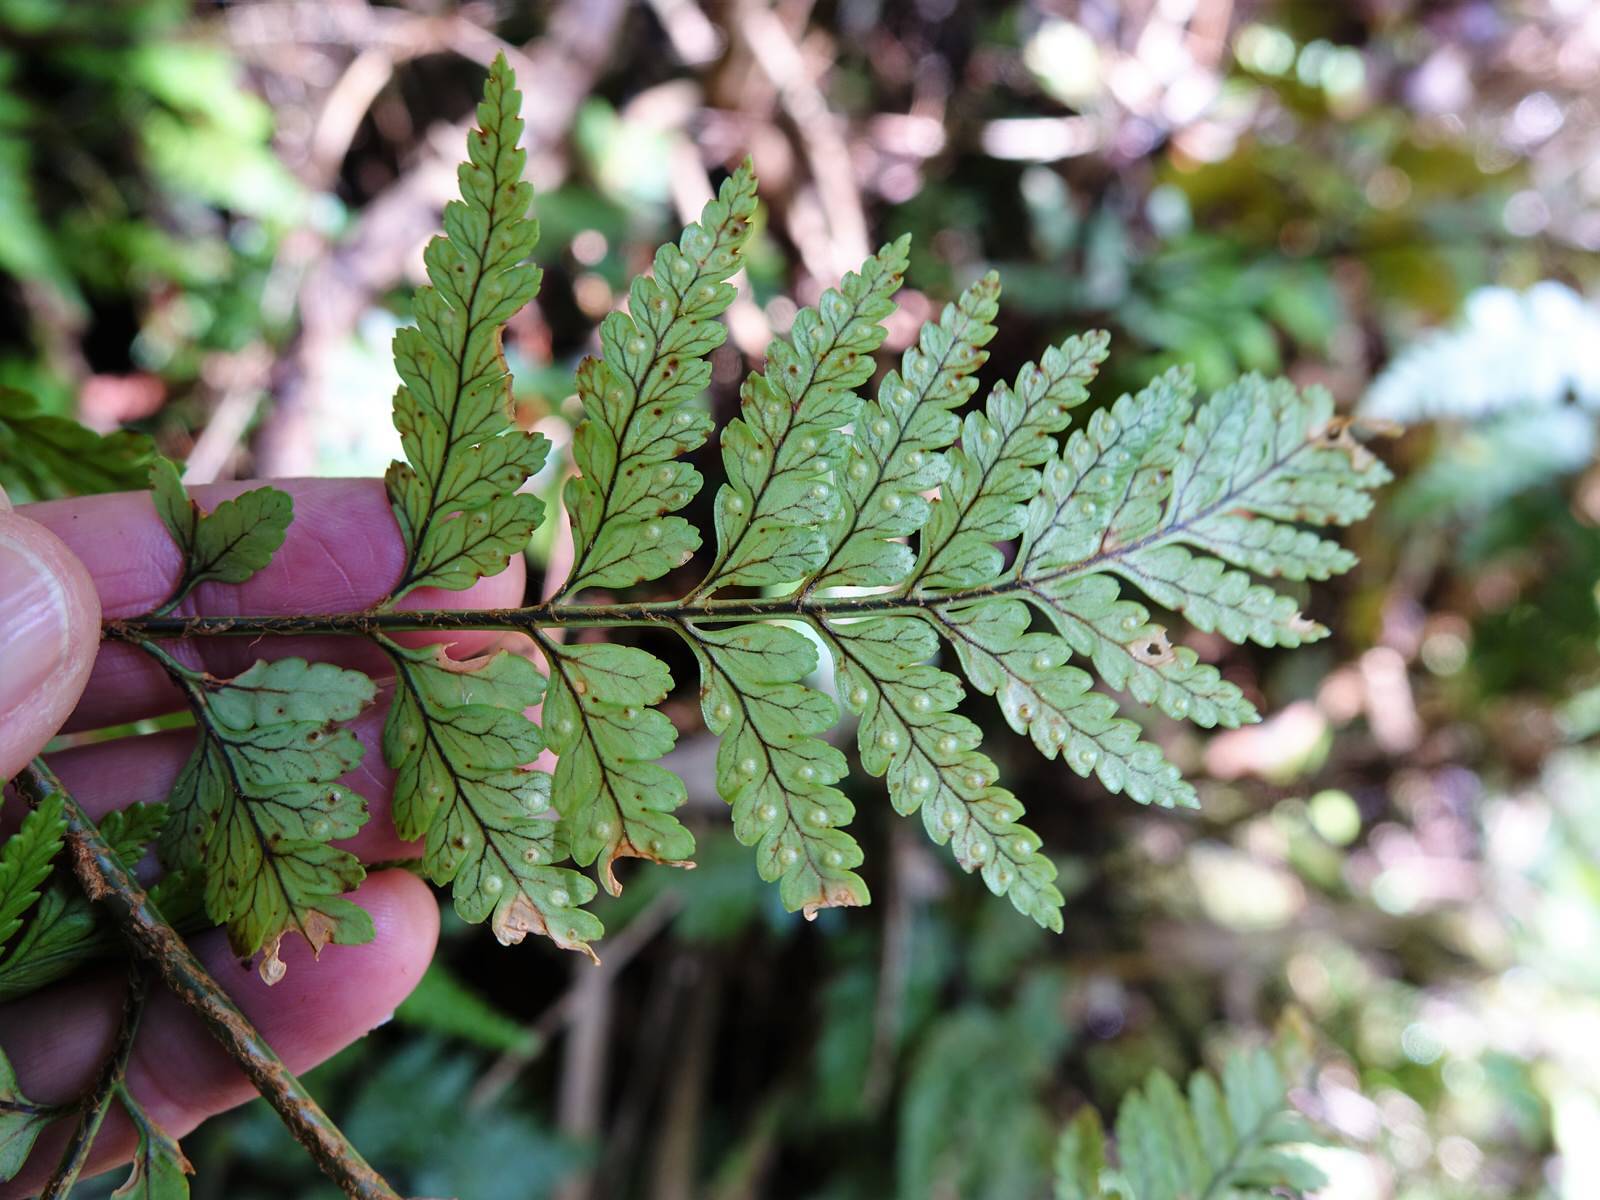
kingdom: Plantae
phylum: Tracheophyta
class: Polypodiopsida
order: Polypodiales
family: Dryopteridaceae
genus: Rumohra
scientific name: Rumohra adiantiformis
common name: Leather fern
